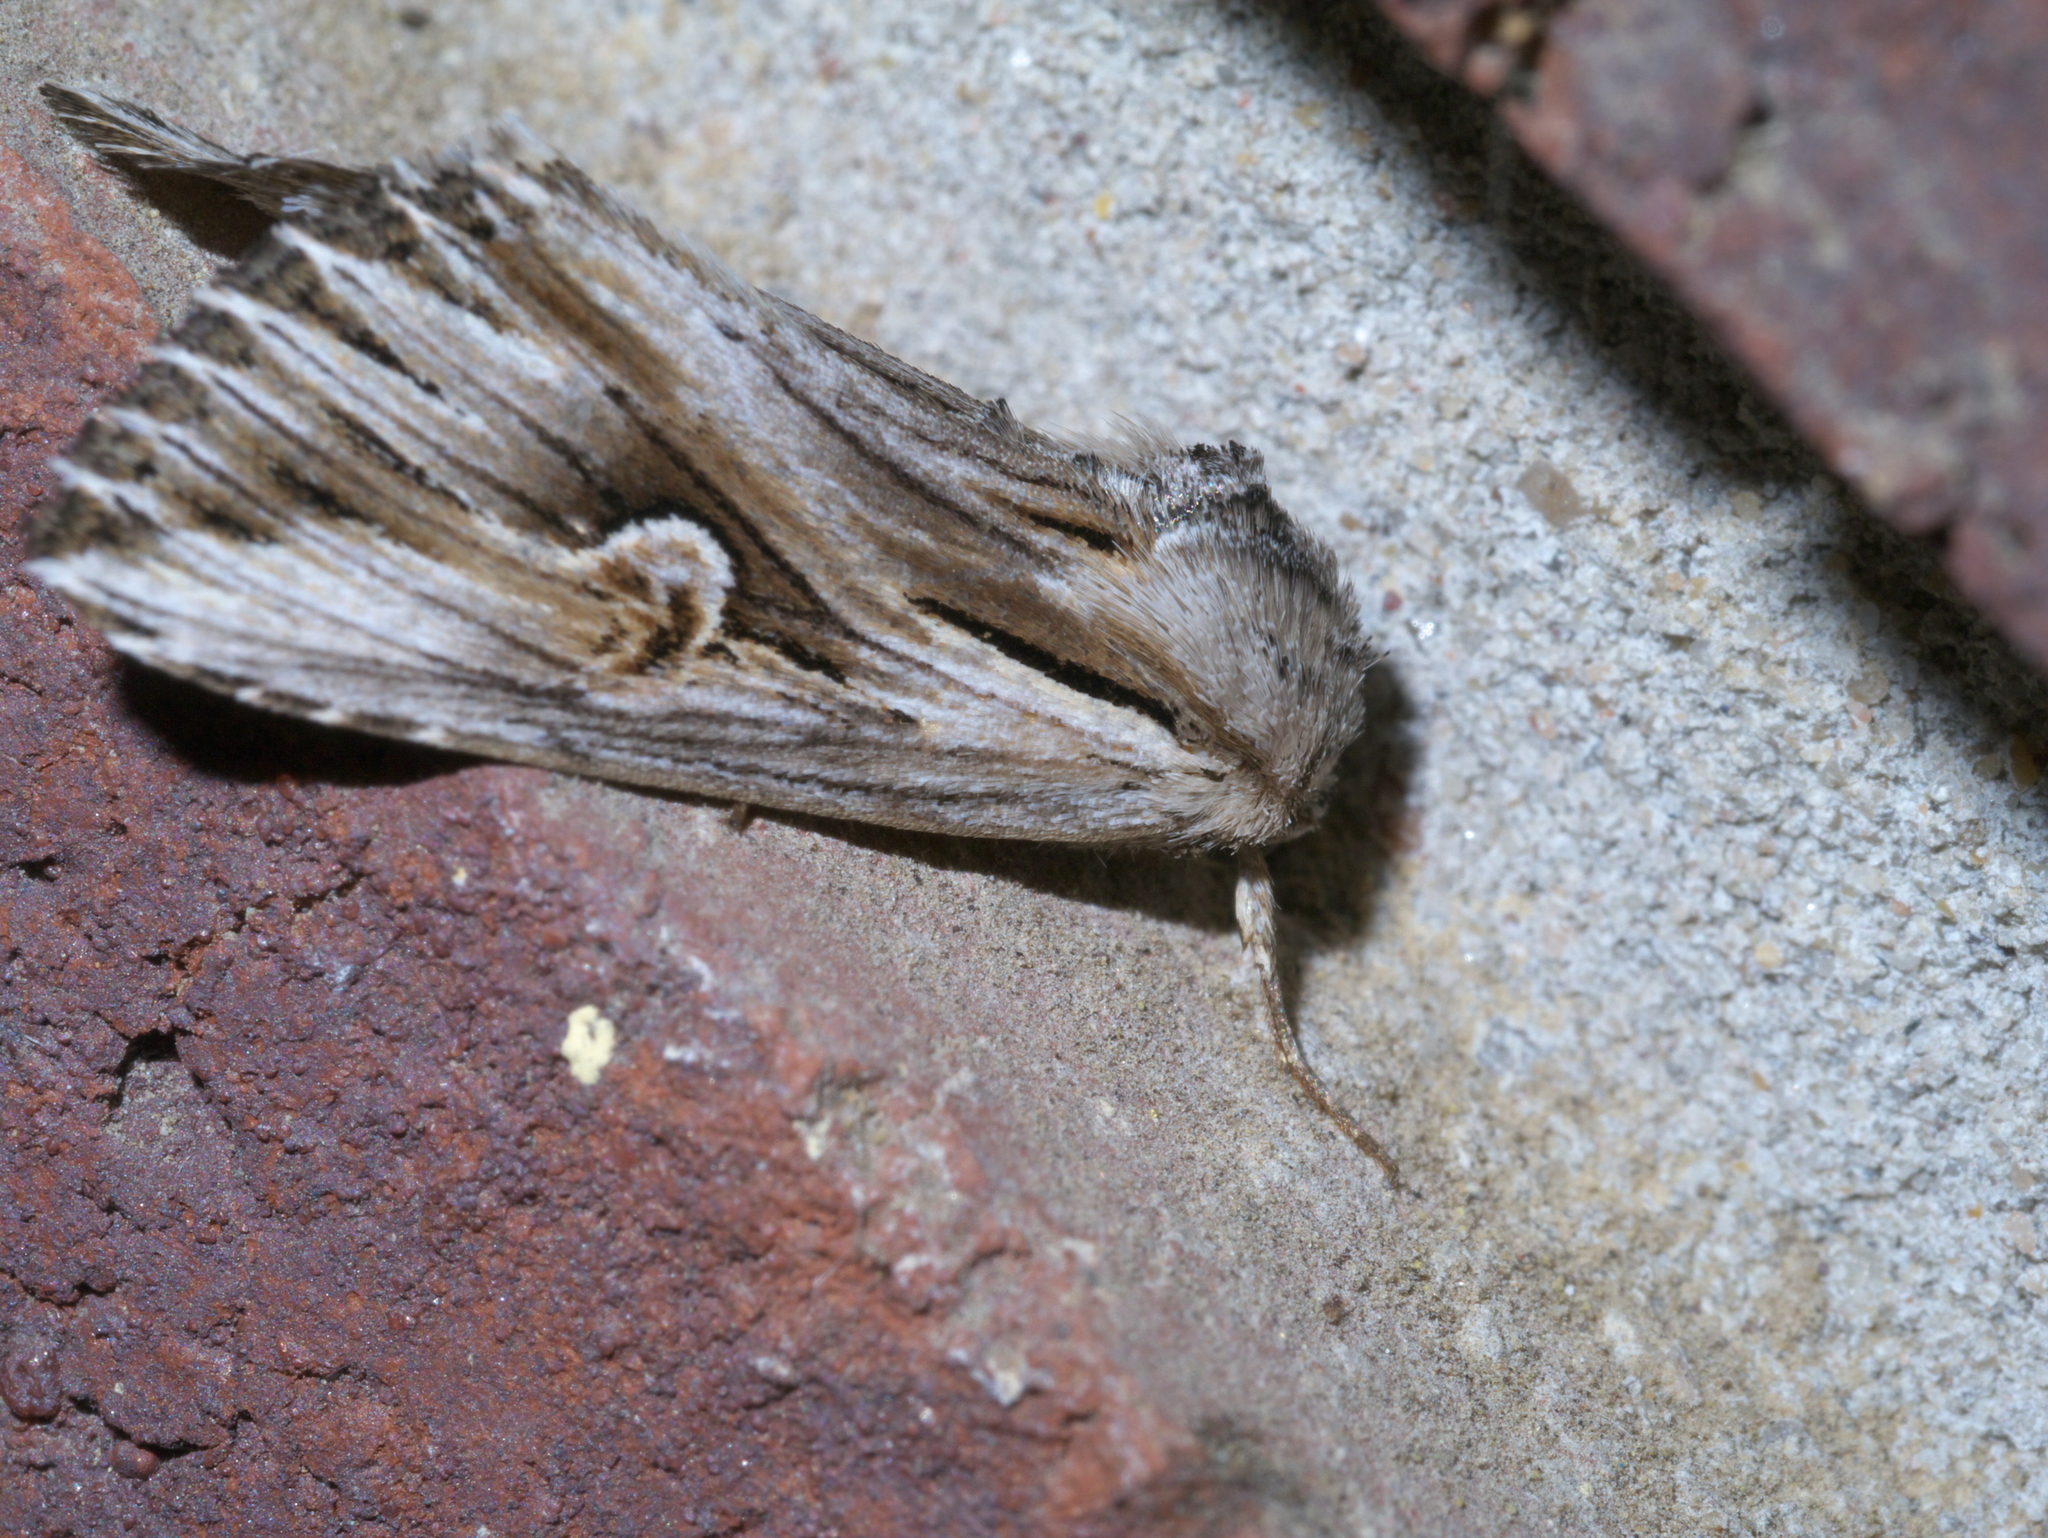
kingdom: Animalia
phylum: Arthropoda
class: Insecta
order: Lepidoptera
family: Noctuidae
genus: Nedra
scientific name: Nedra ramosula
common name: Gray half-spot
